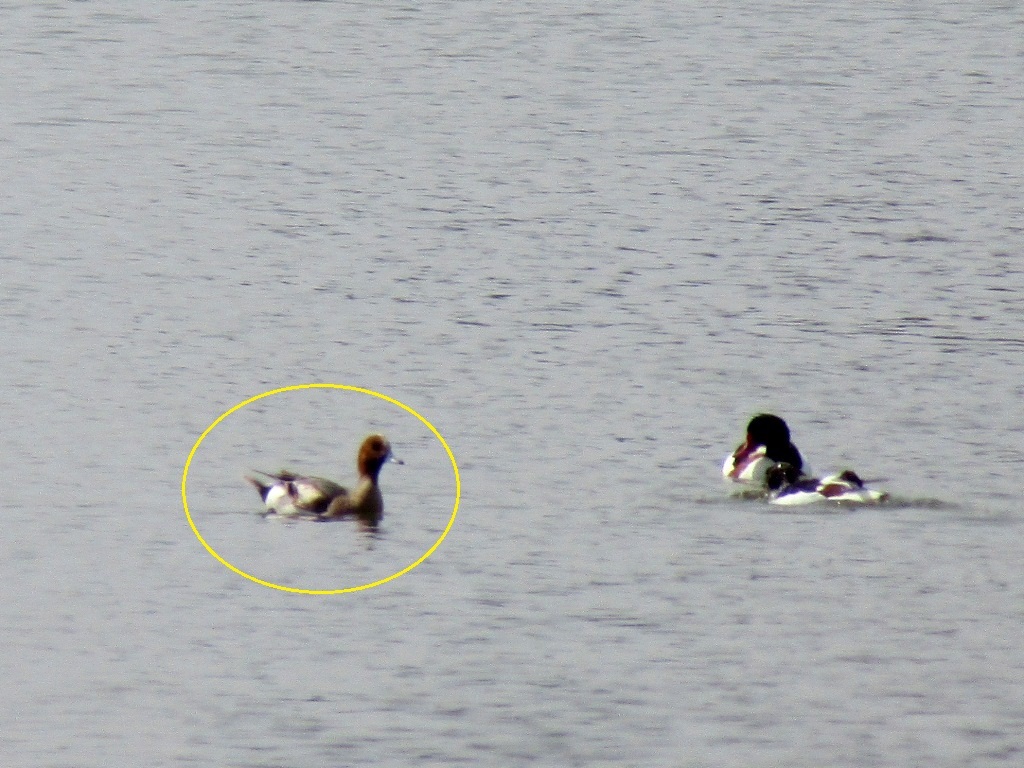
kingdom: Animalia
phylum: Chordata
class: Aves
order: Anseriformes
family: Anatidae
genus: Mareca
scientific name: Mareca penelope
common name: Eurasian wigeon
